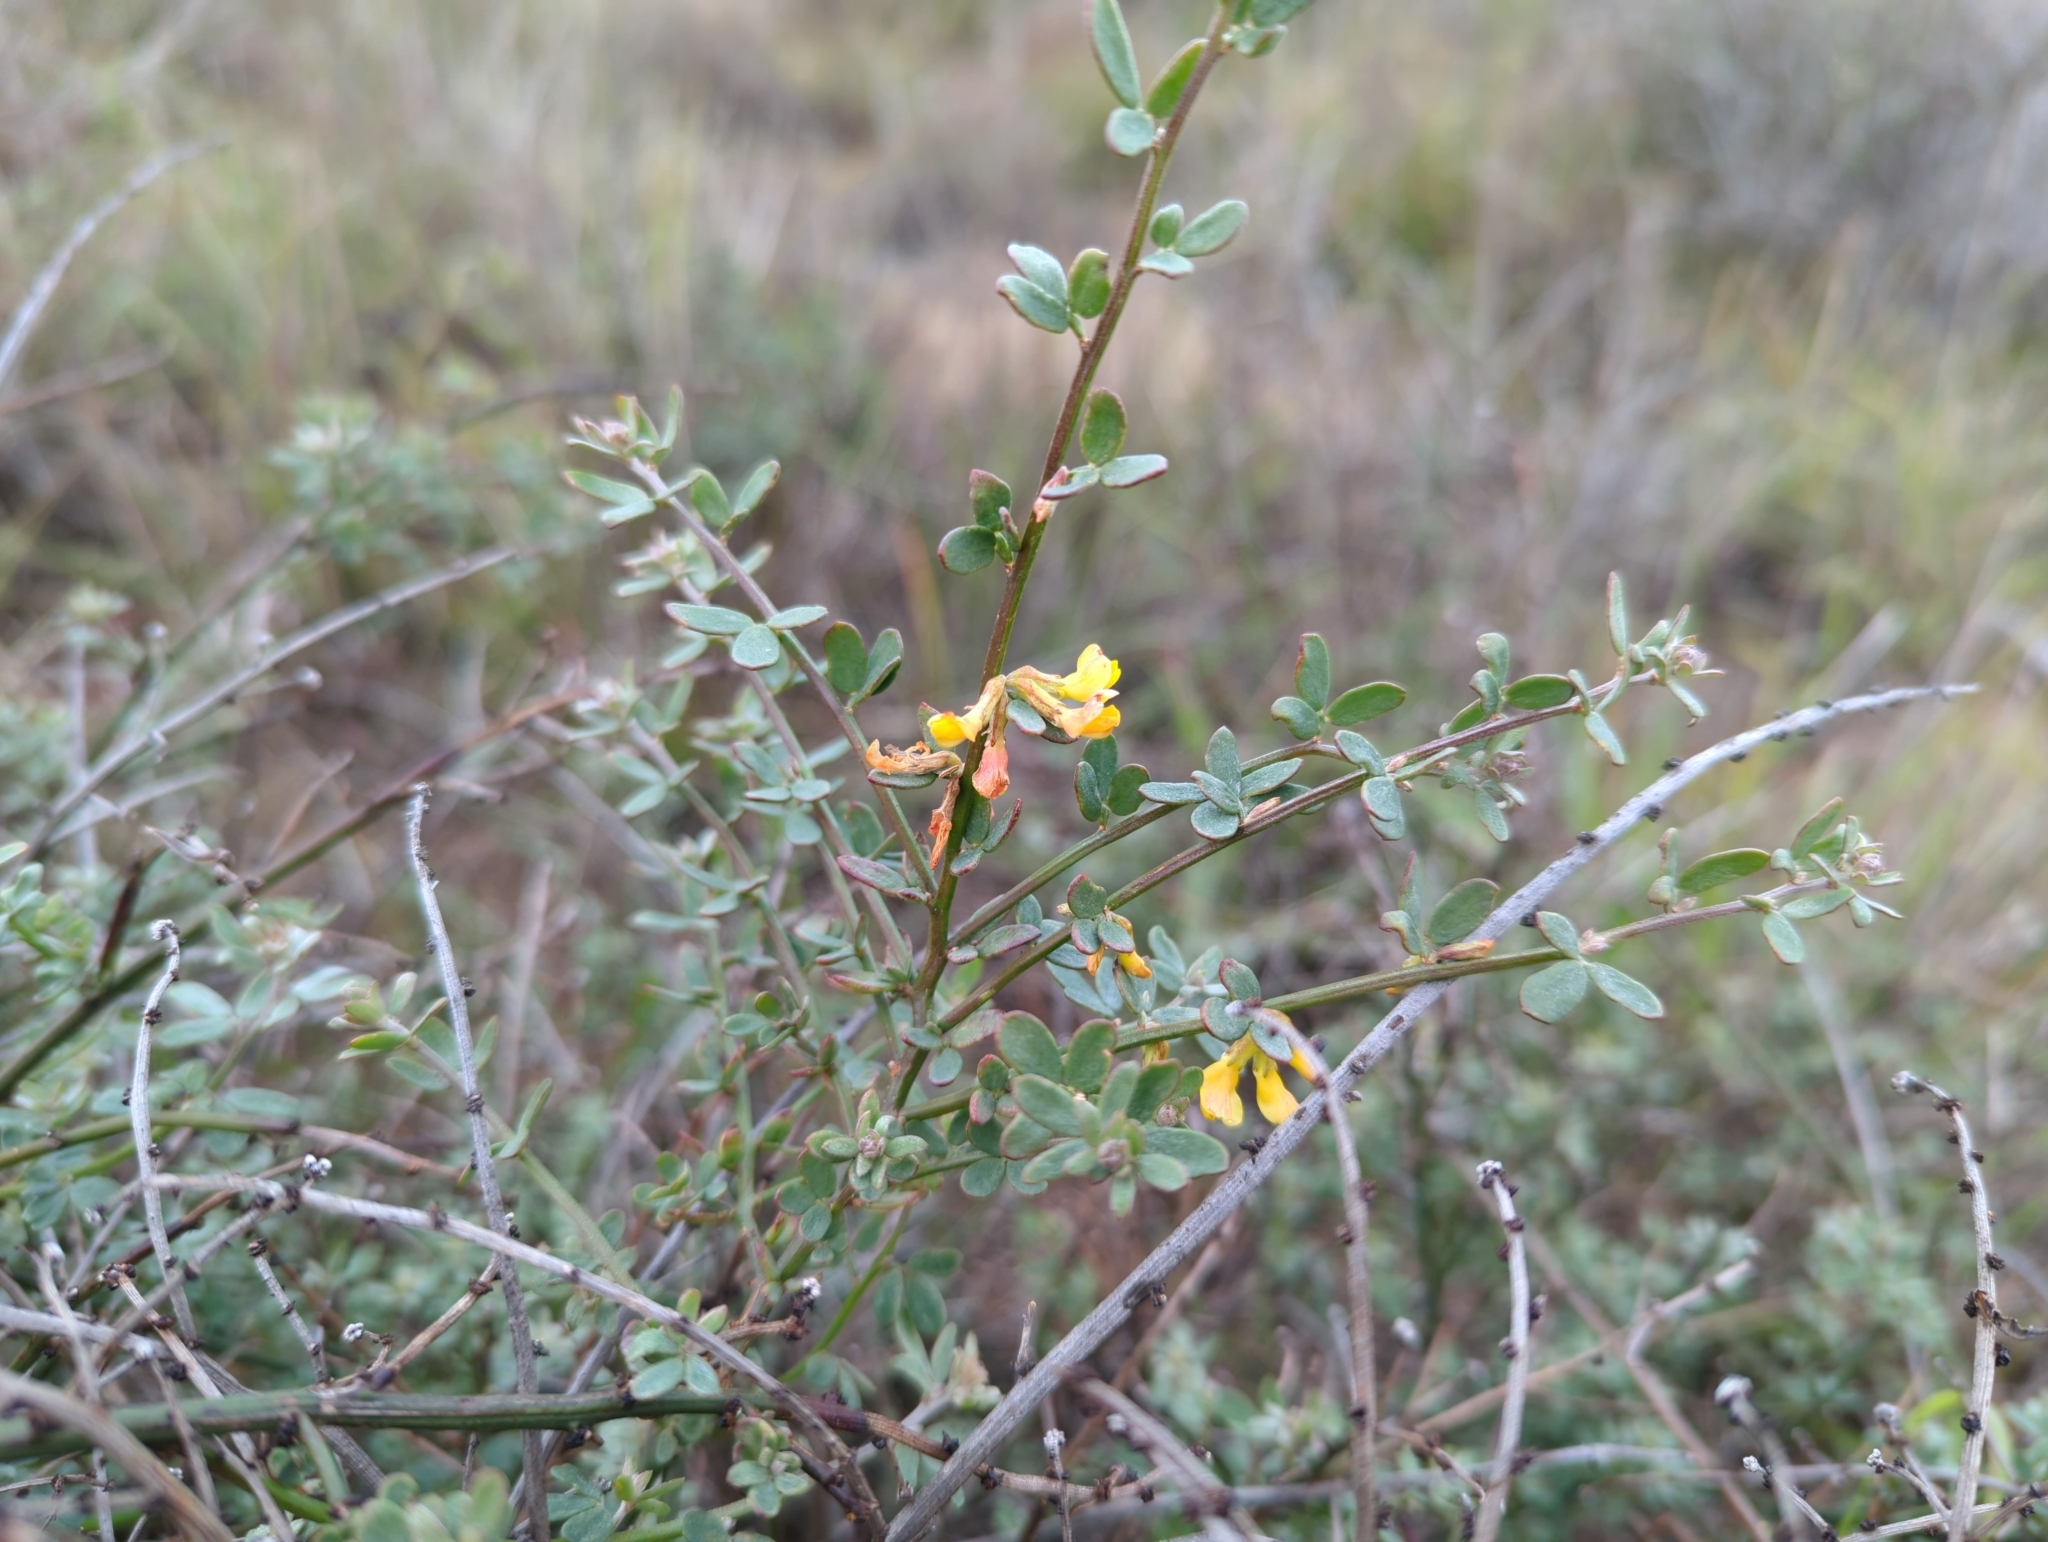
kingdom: Plantae
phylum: Tracheophyta
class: Magnoliopsida
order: Fabales
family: Fabaceae
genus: Acmispon
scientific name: Acmispon glaber
